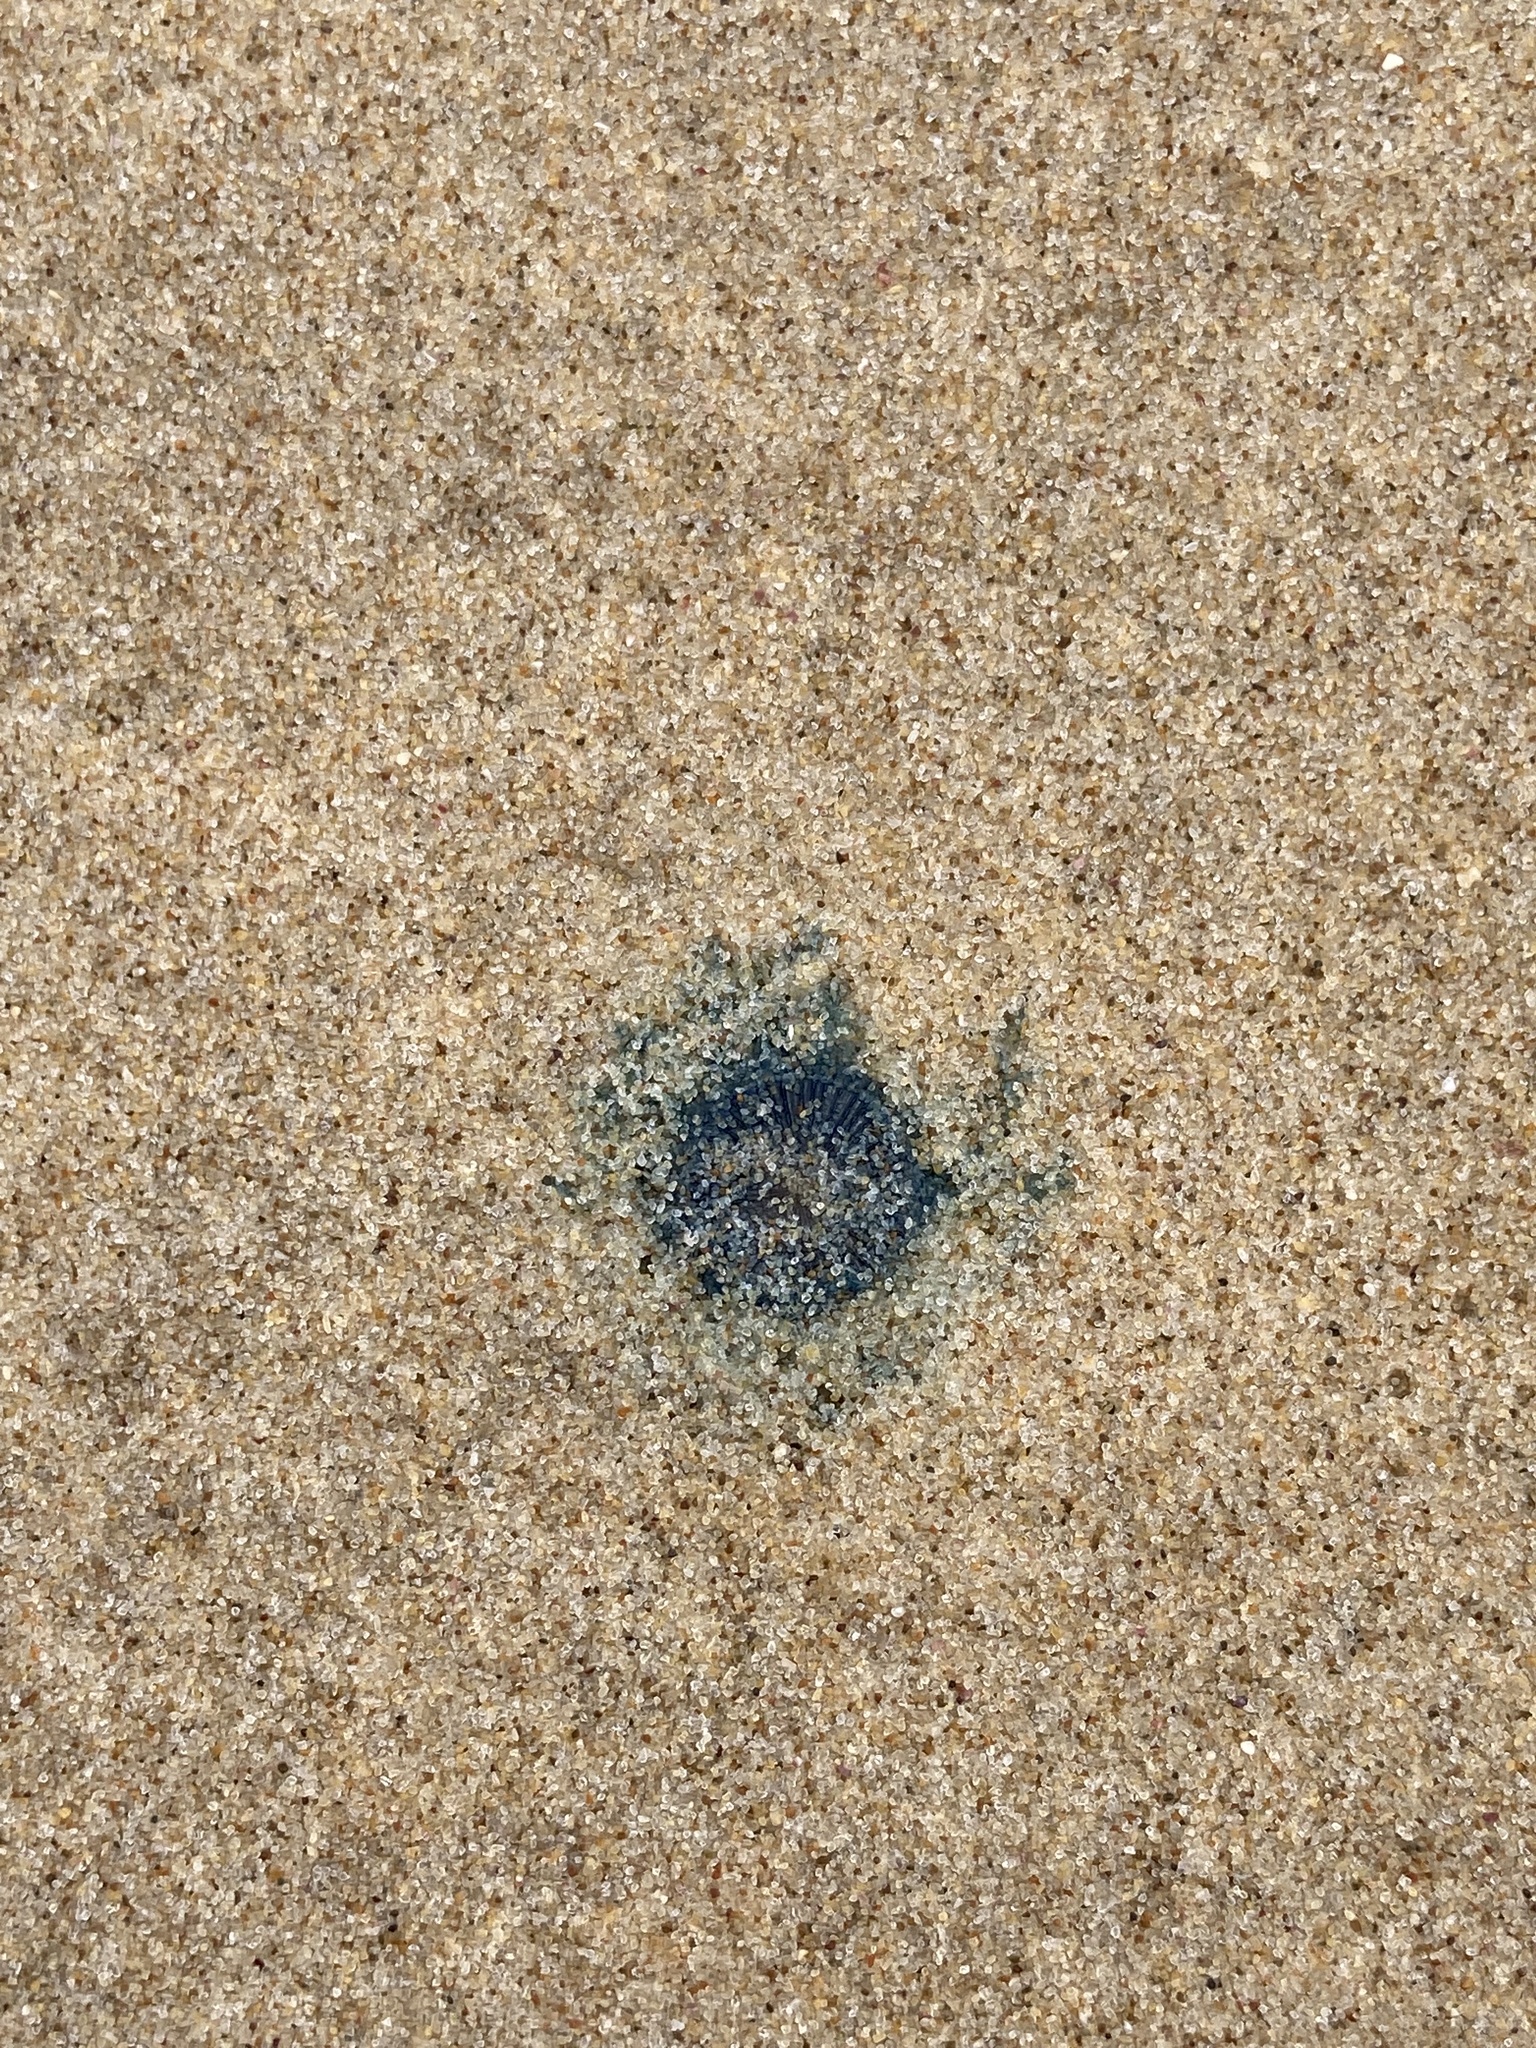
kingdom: Animalia
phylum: Cnidaria
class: Hydrozoa
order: Anthoathecata
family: Porpitidae
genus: Porpita
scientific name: Porpita porpita
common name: Blue button
